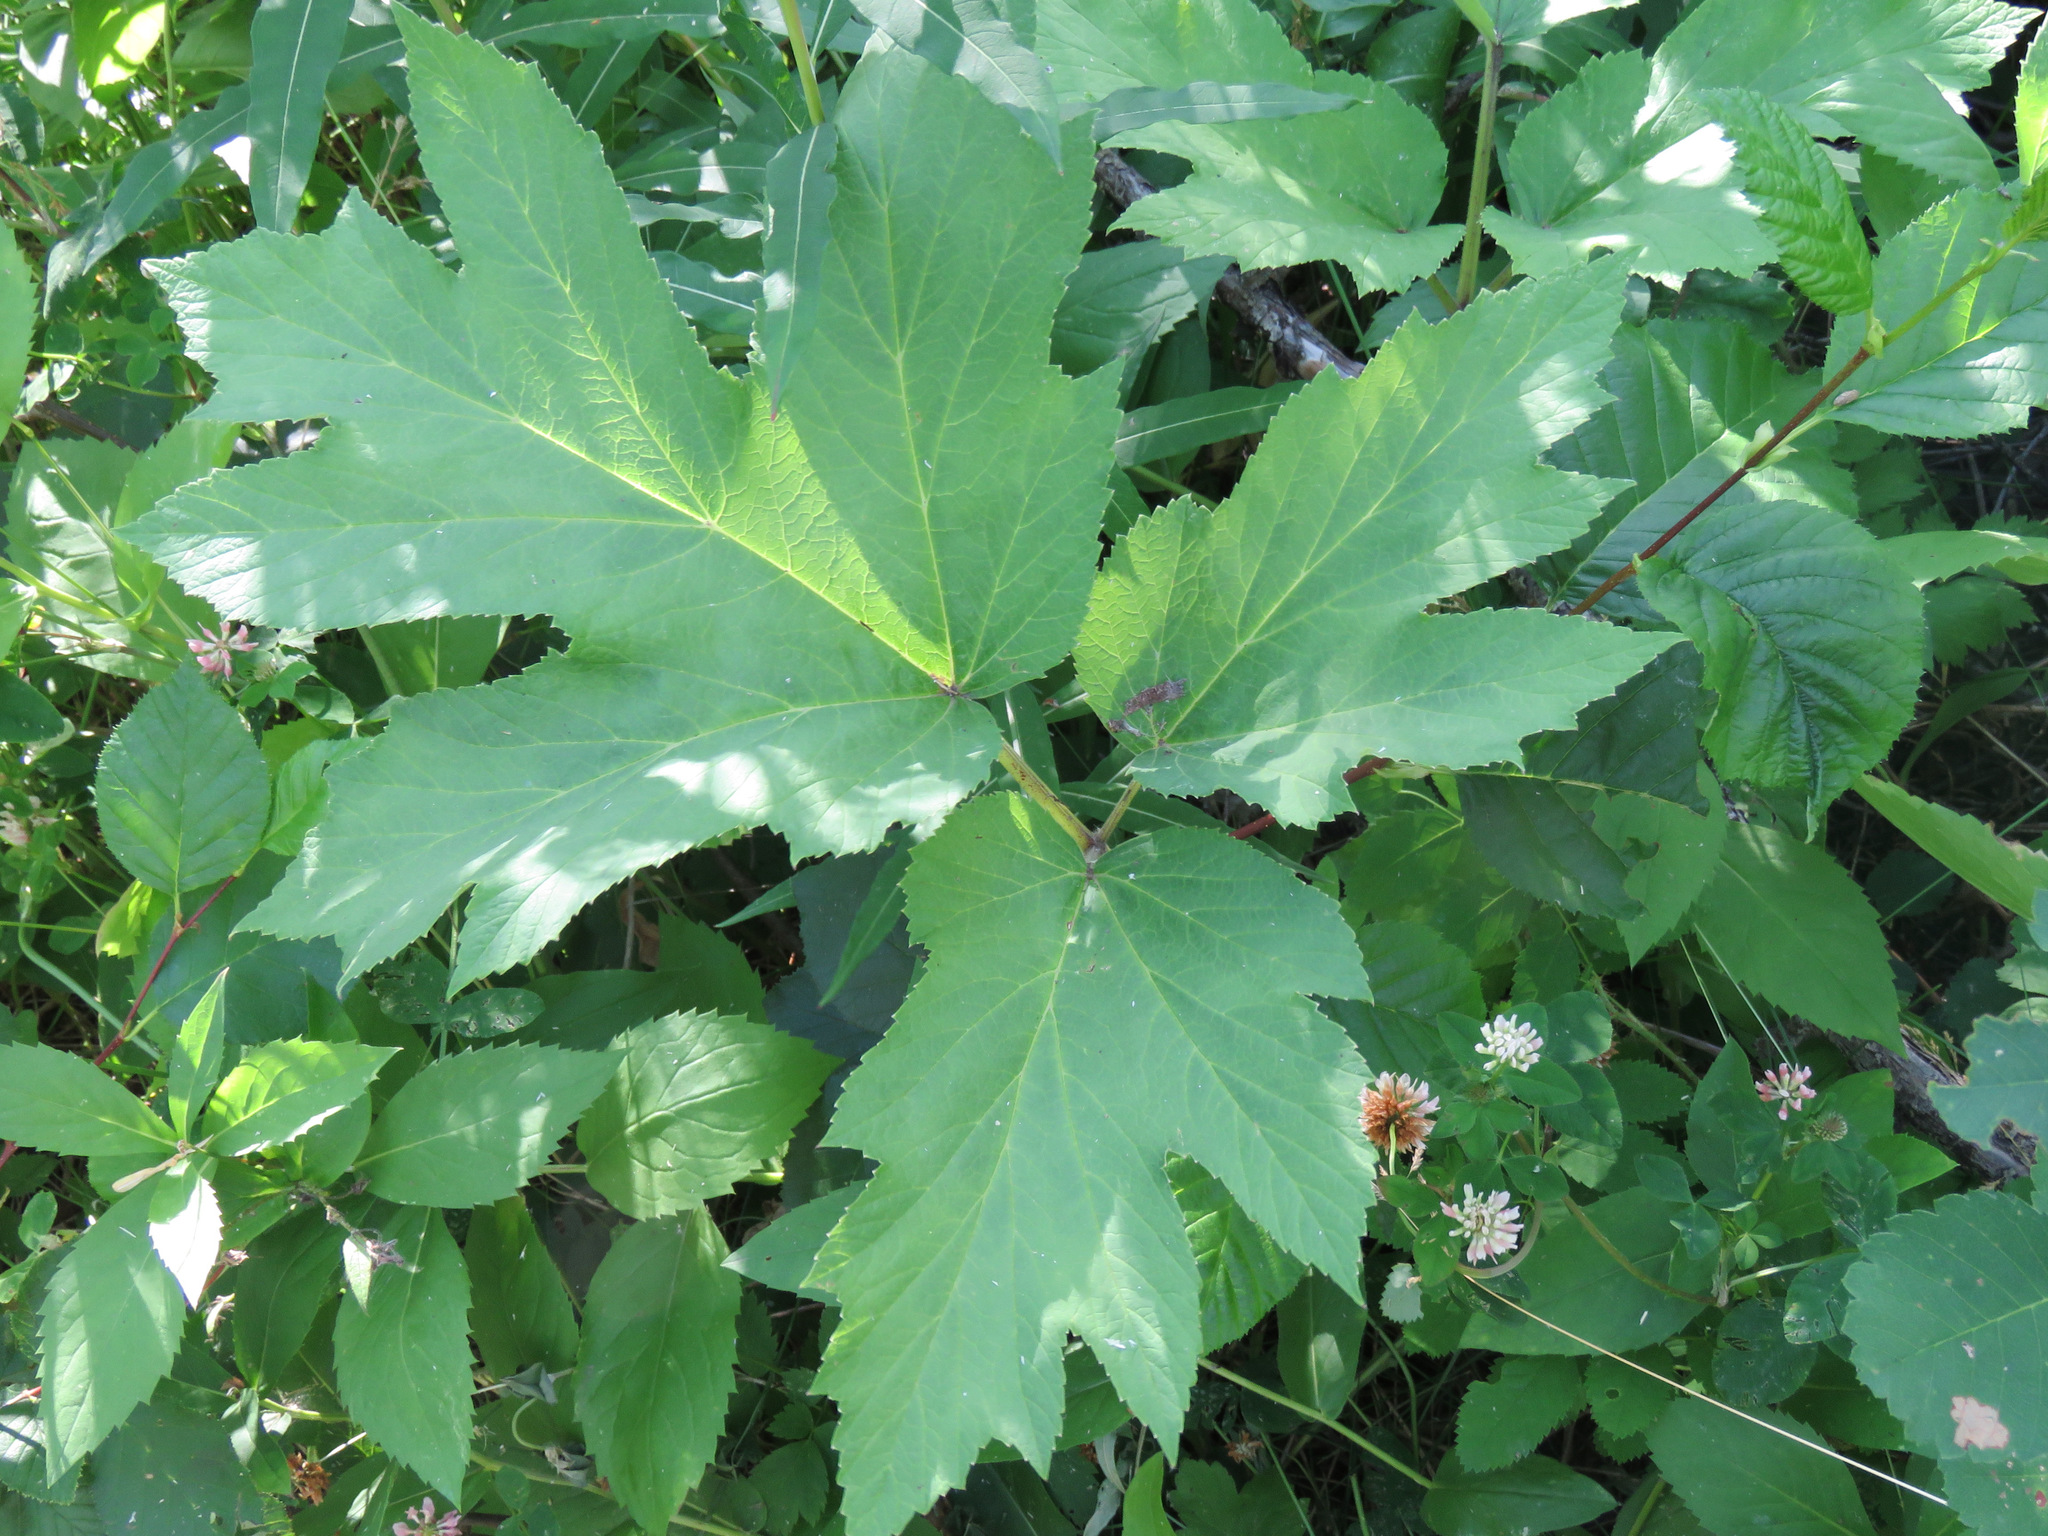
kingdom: Plantae
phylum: Tracheophyta
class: Magnoliopsida
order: Apiales
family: Apiaceae
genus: Heracleum
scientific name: Heracleum maximum
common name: American cow parsnip
